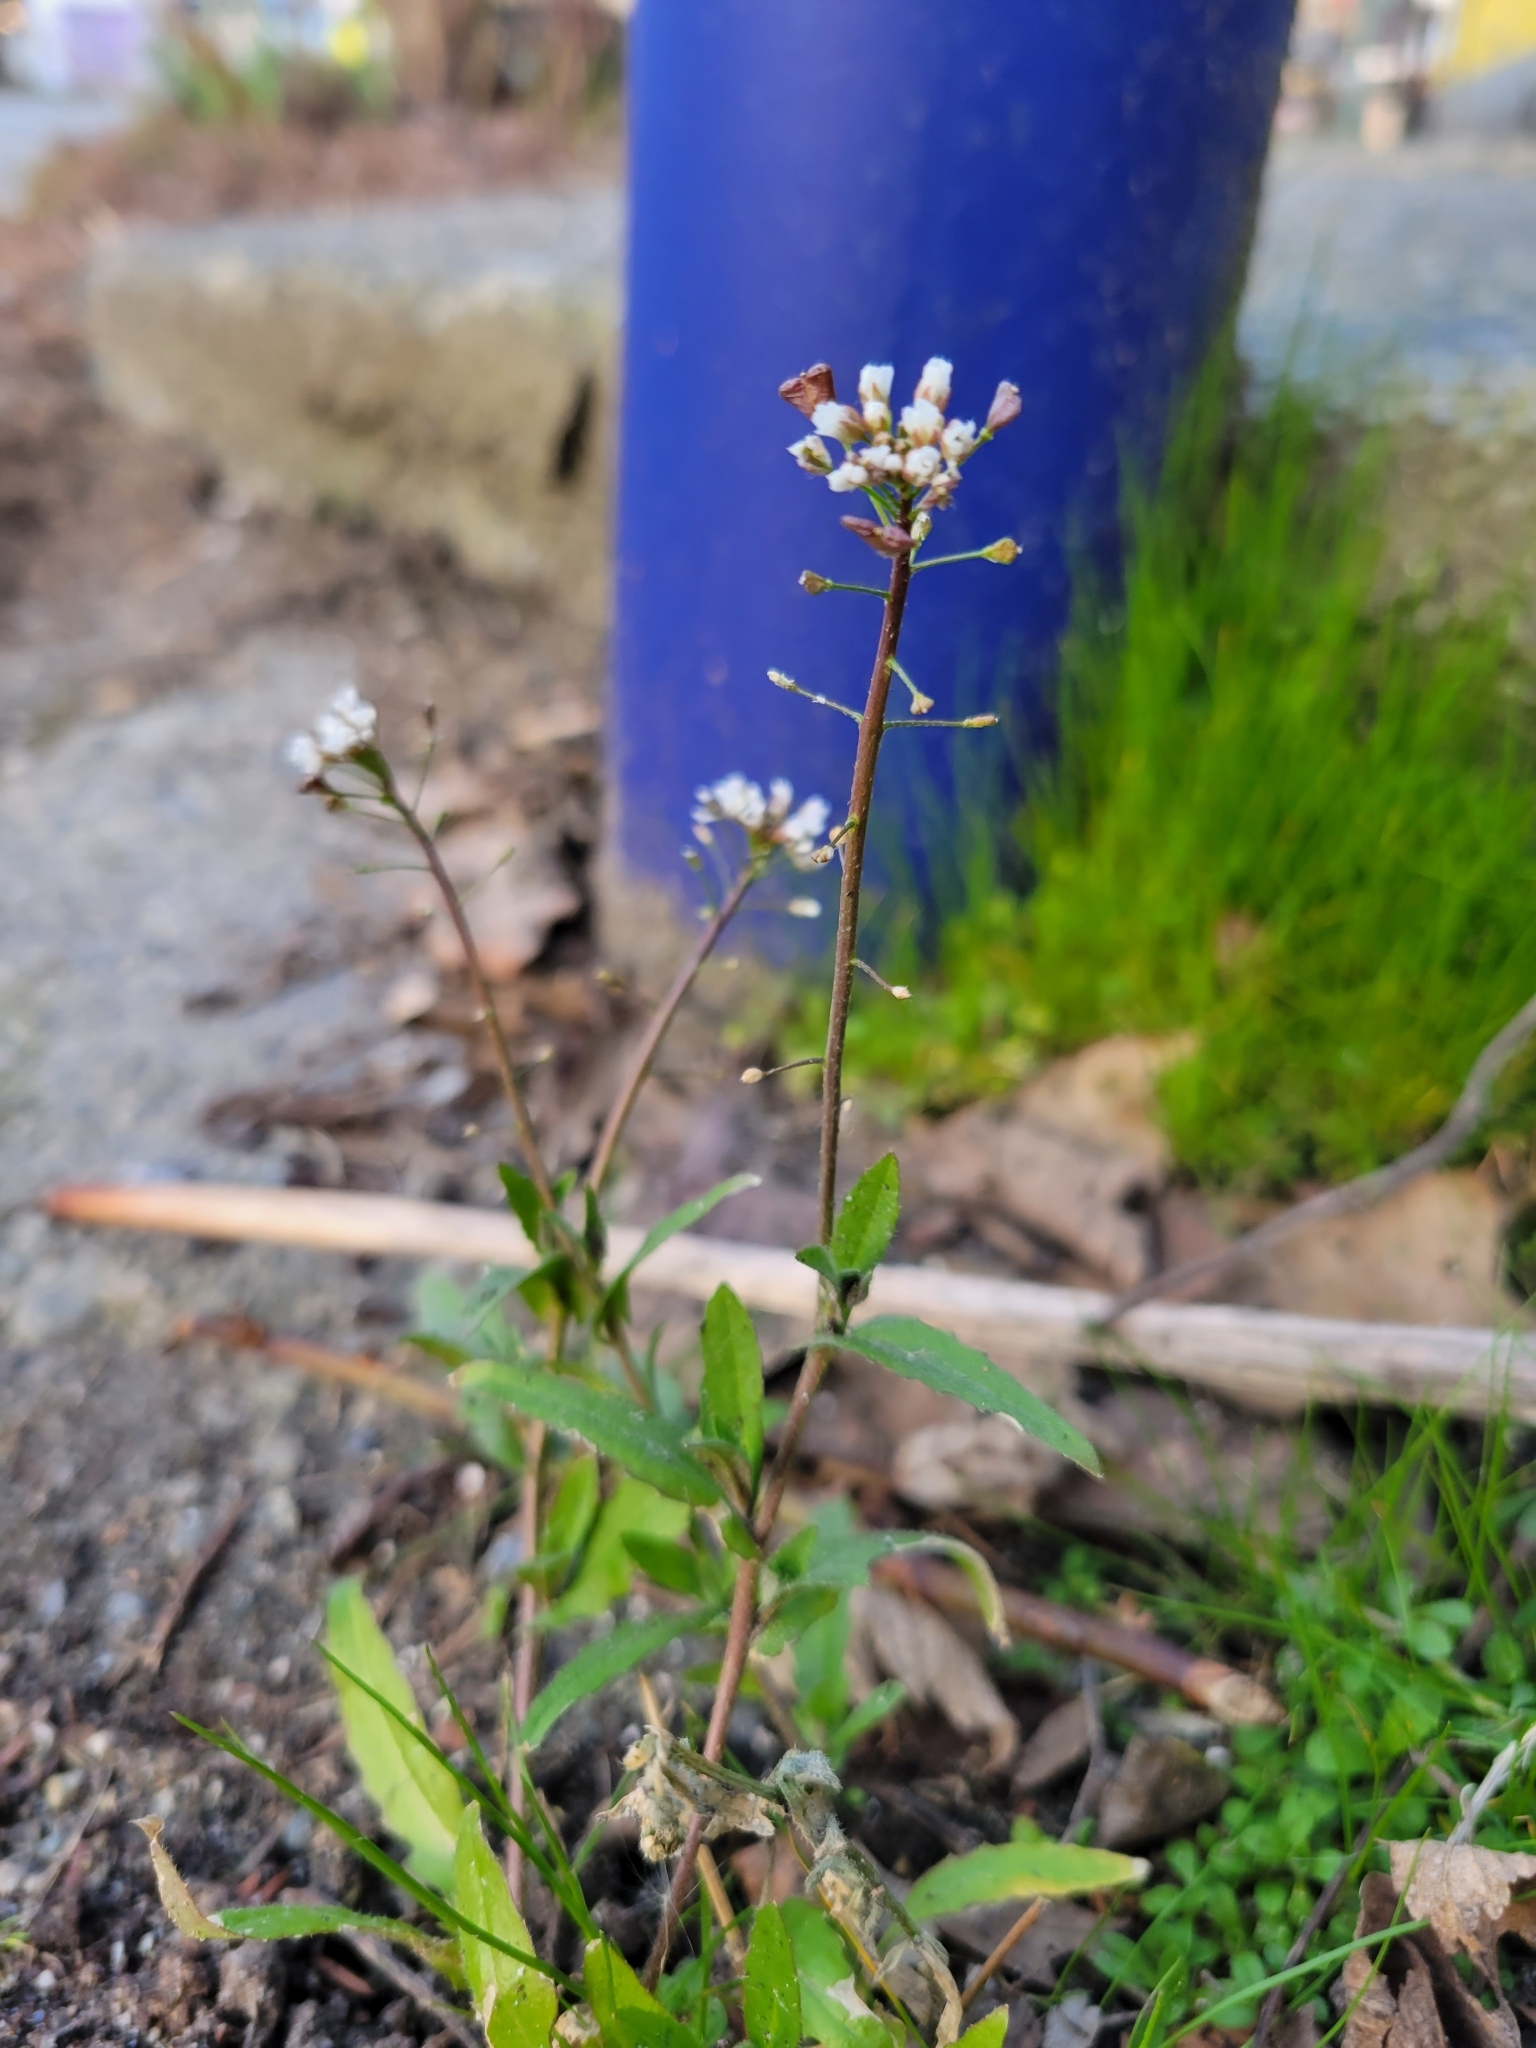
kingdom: Plantae
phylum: Tracheophyta
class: Magnoliopsida
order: Brassicales
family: Brassicaceae
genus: Capsella
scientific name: Capsella bursa-pastoris
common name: Shepherd's purse
